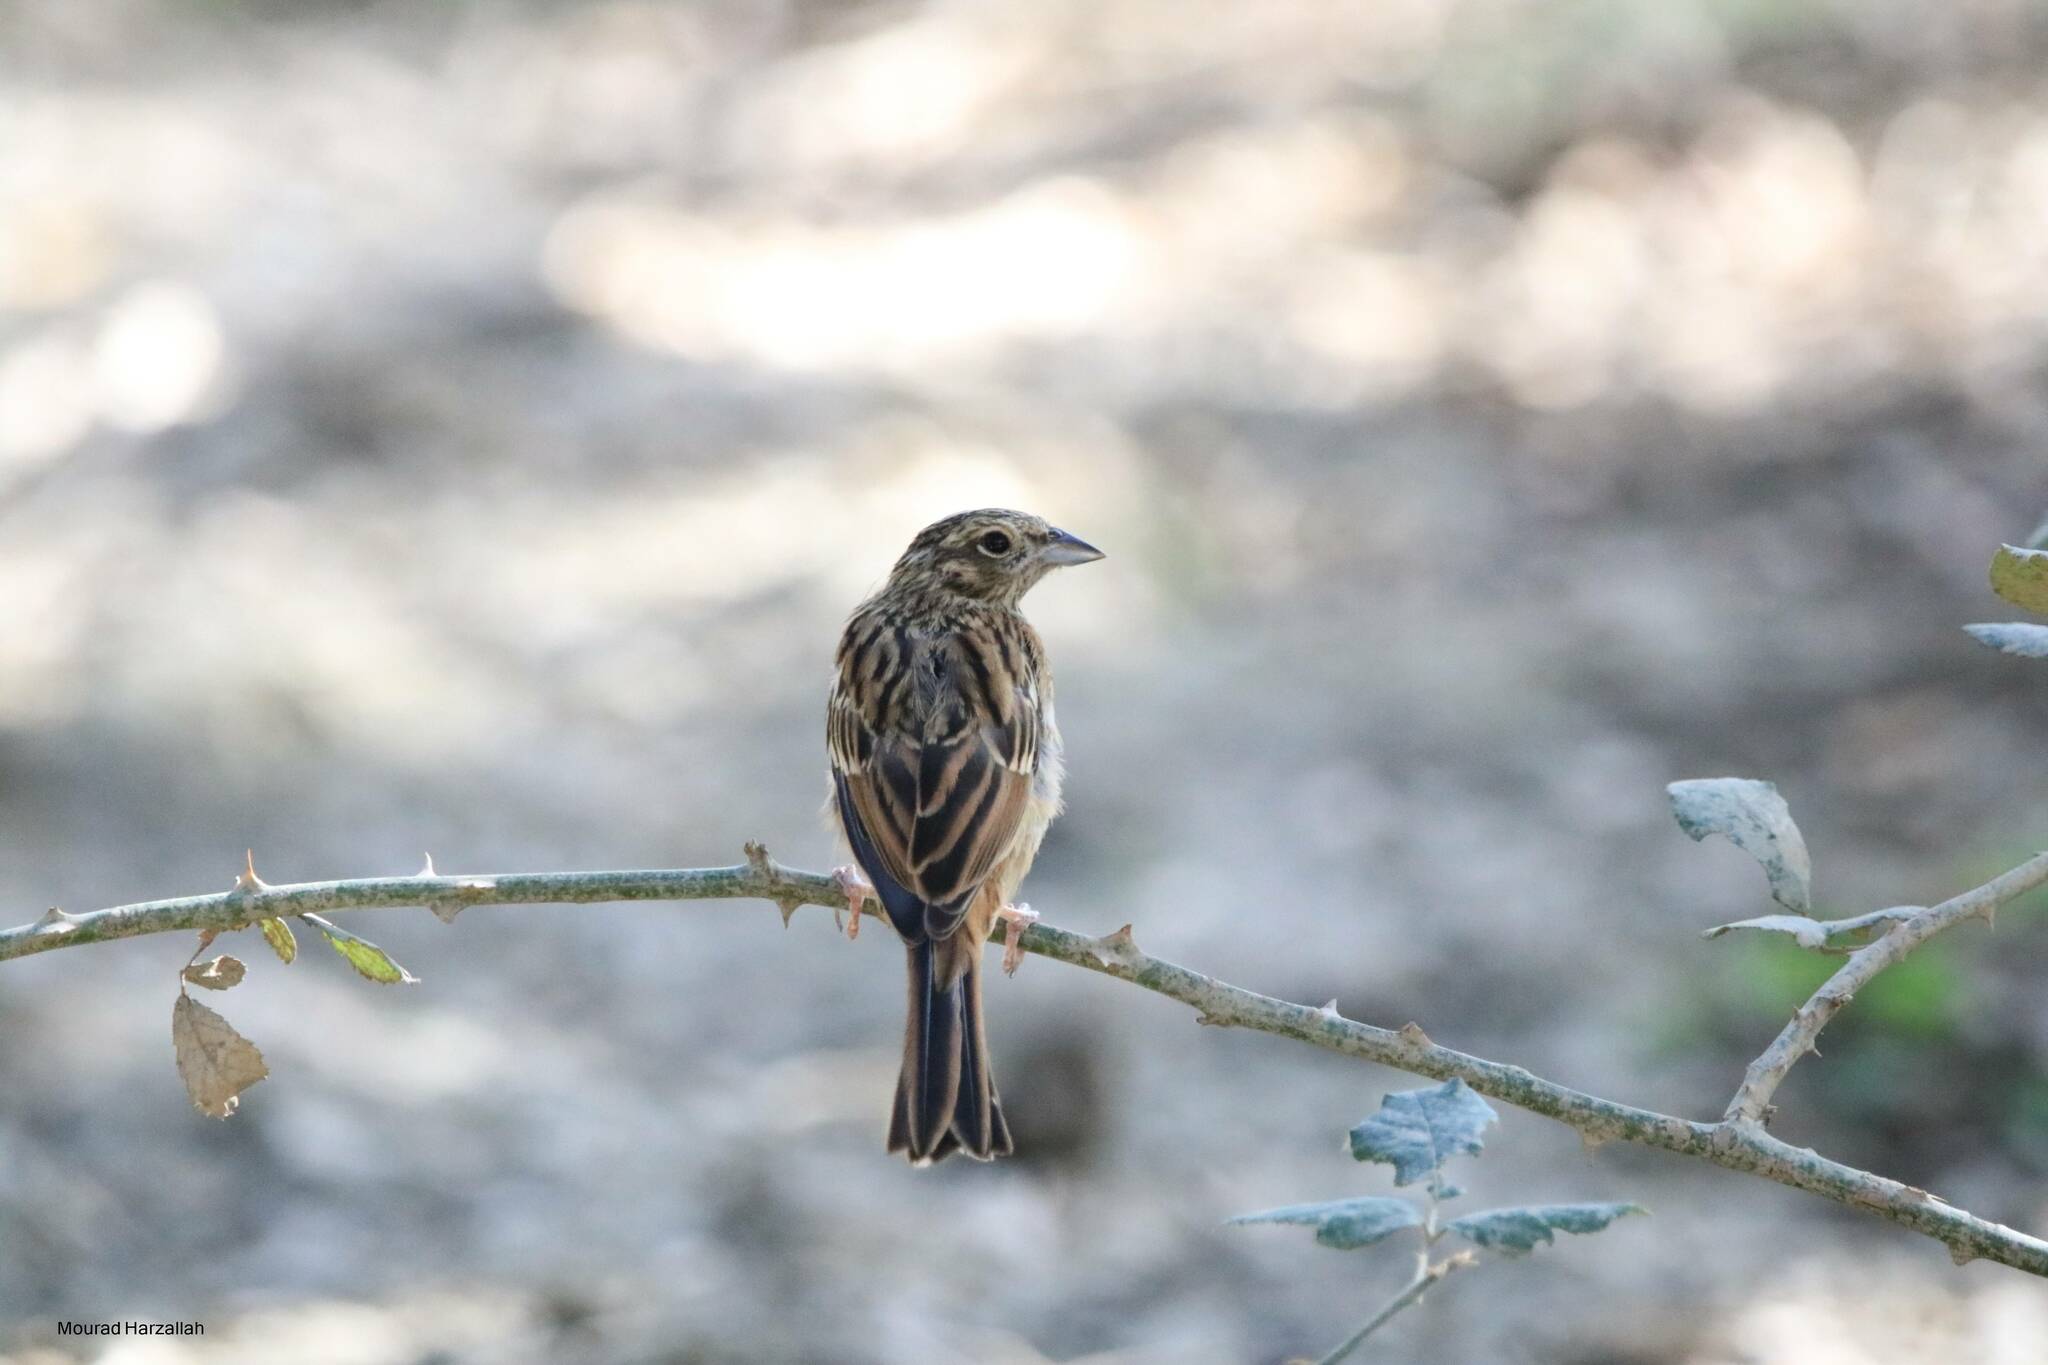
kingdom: Animalia
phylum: Chordata
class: Aves
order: Passeriformes
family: Emberizidae
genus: Emberiza
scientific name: Emberiza cia
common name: Rock bunting
